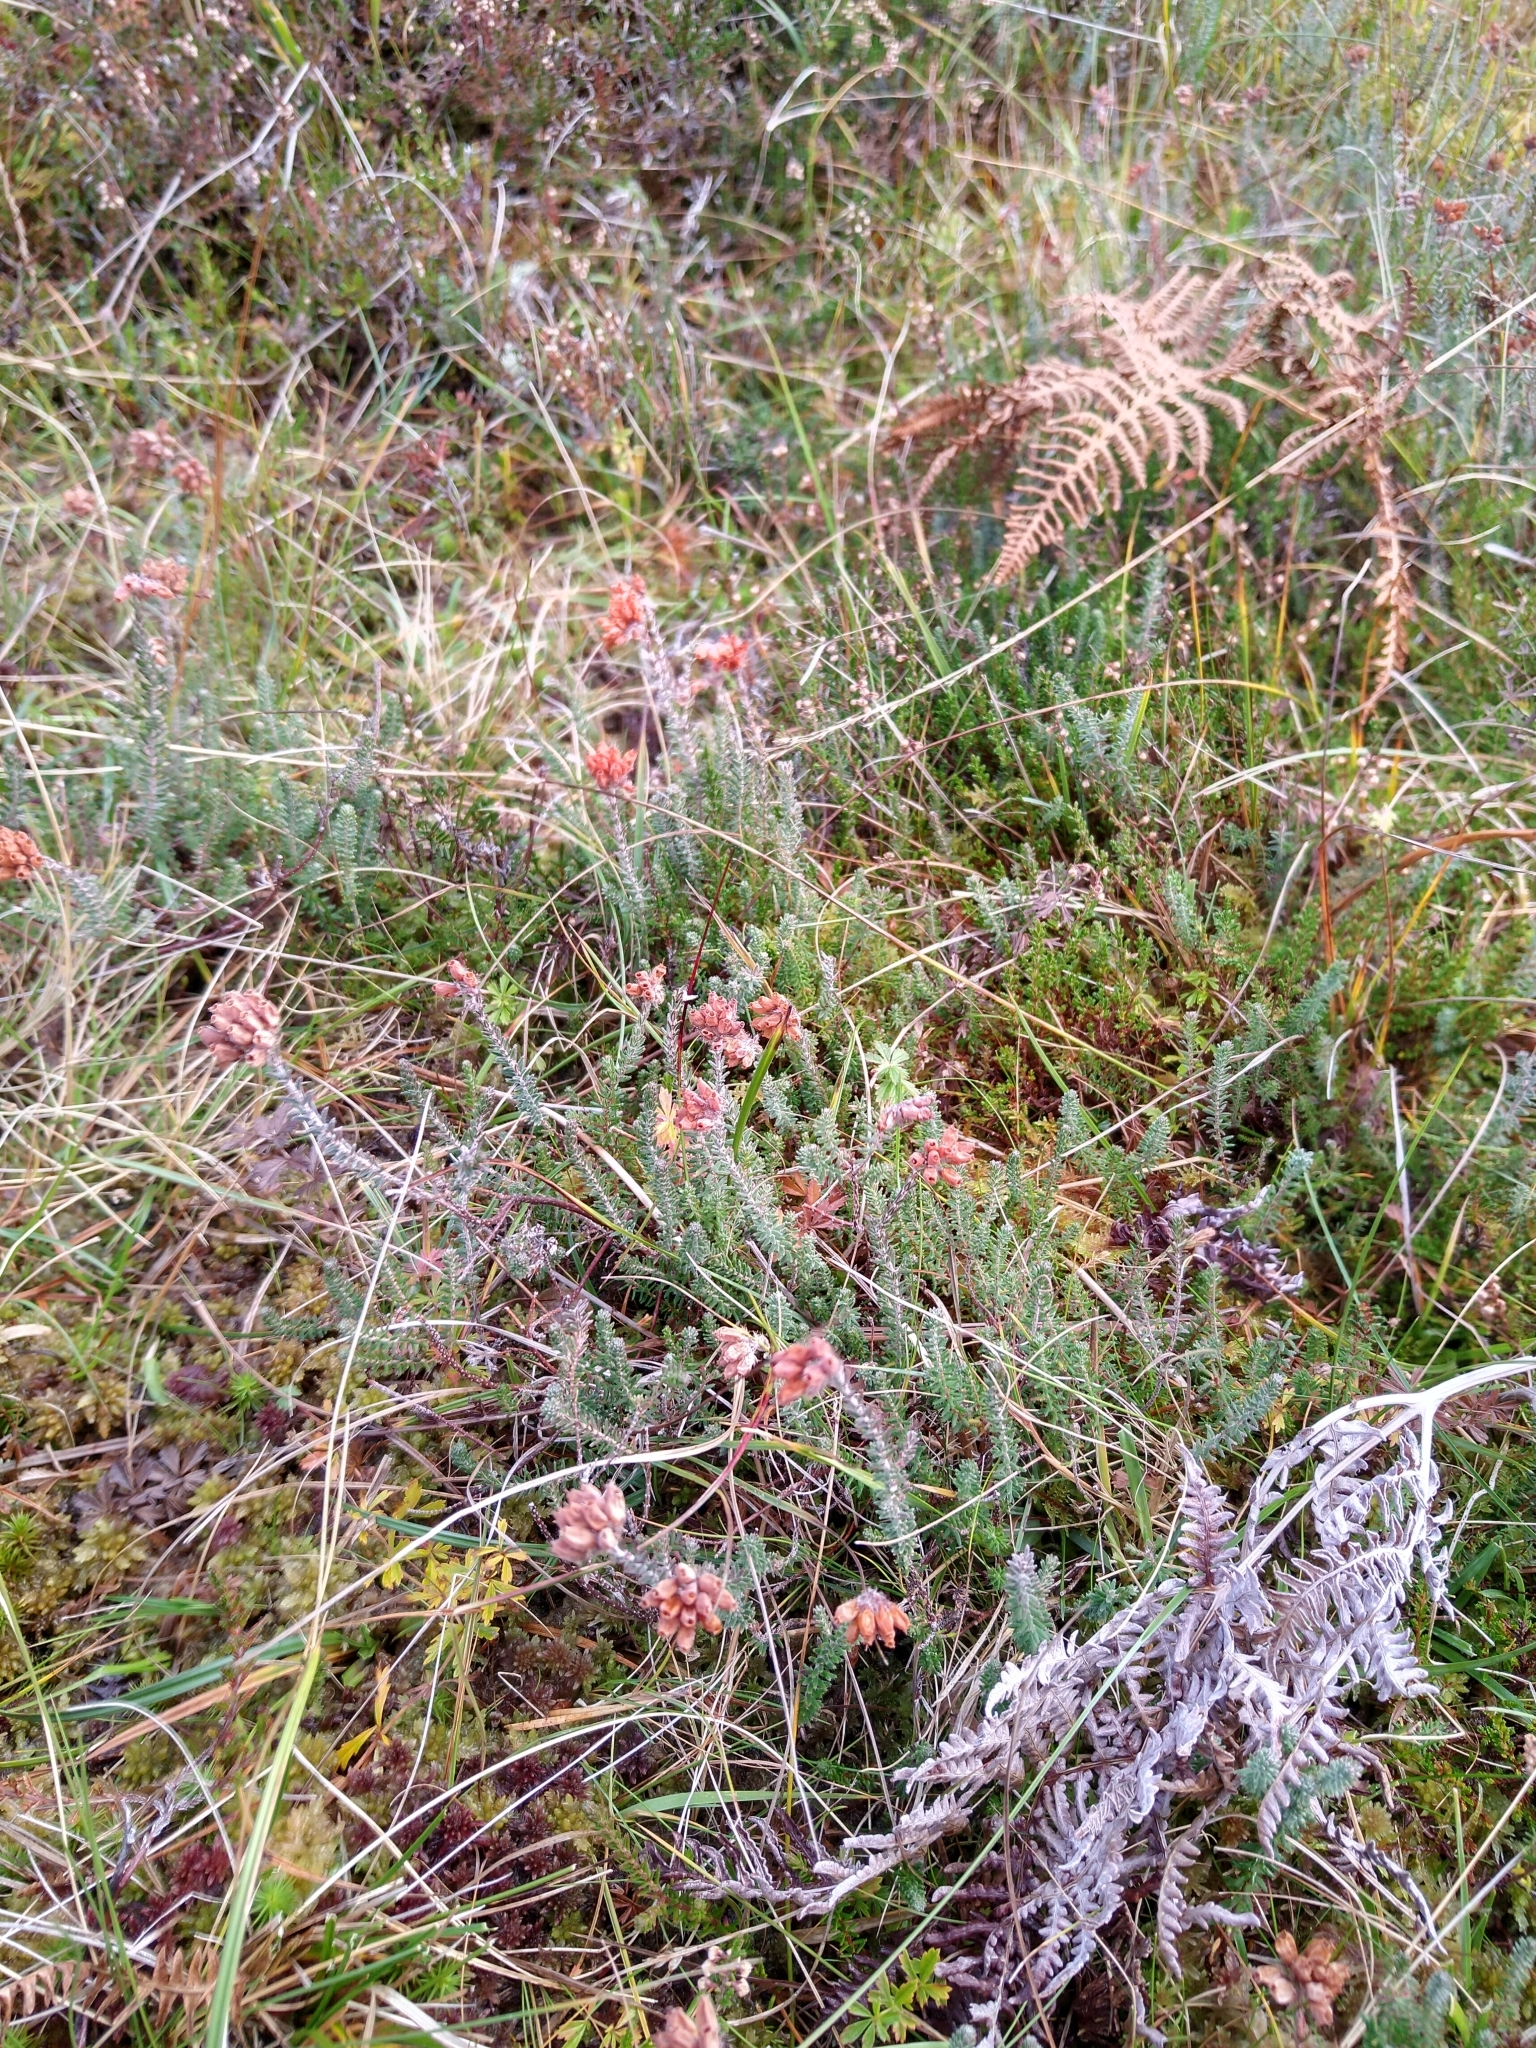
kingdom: Plantae
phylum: Tracheophyta
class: Magnoliopsida
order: Ericales
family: Ericaceae
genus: Erica
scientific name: Erica tetralix
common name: Cross-leaved heath
